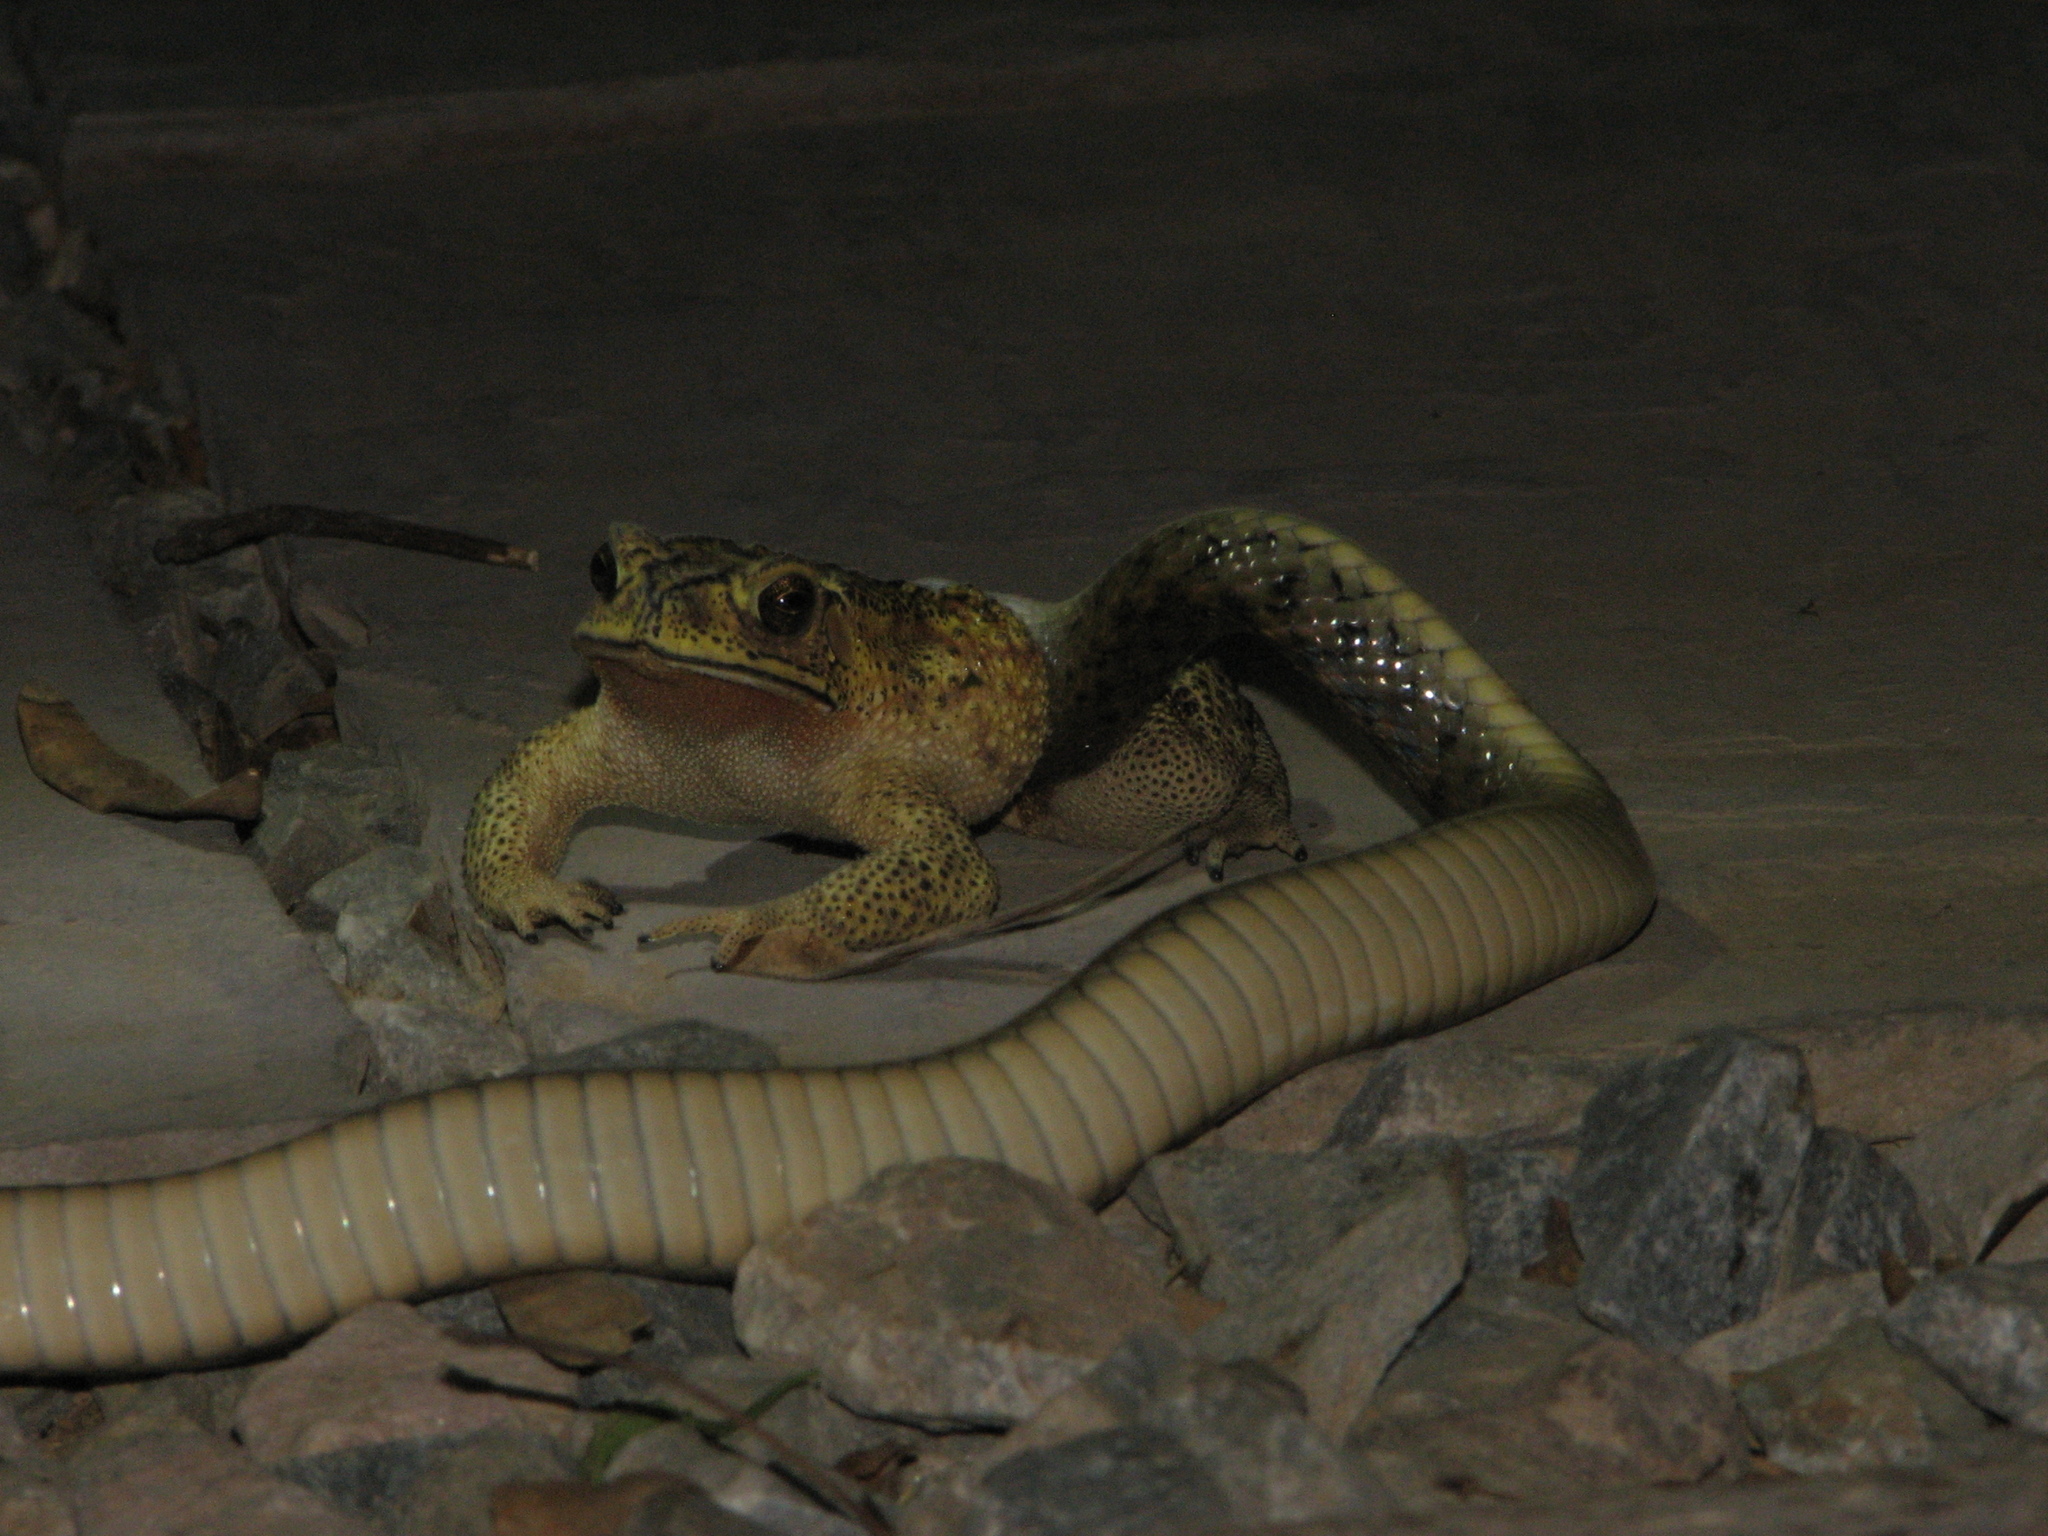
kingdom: Animalia
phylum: Chordata
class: Squamata
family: Colubridae
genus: Fowlea
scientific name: Fowlea piscator
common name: Asiatic water snake
